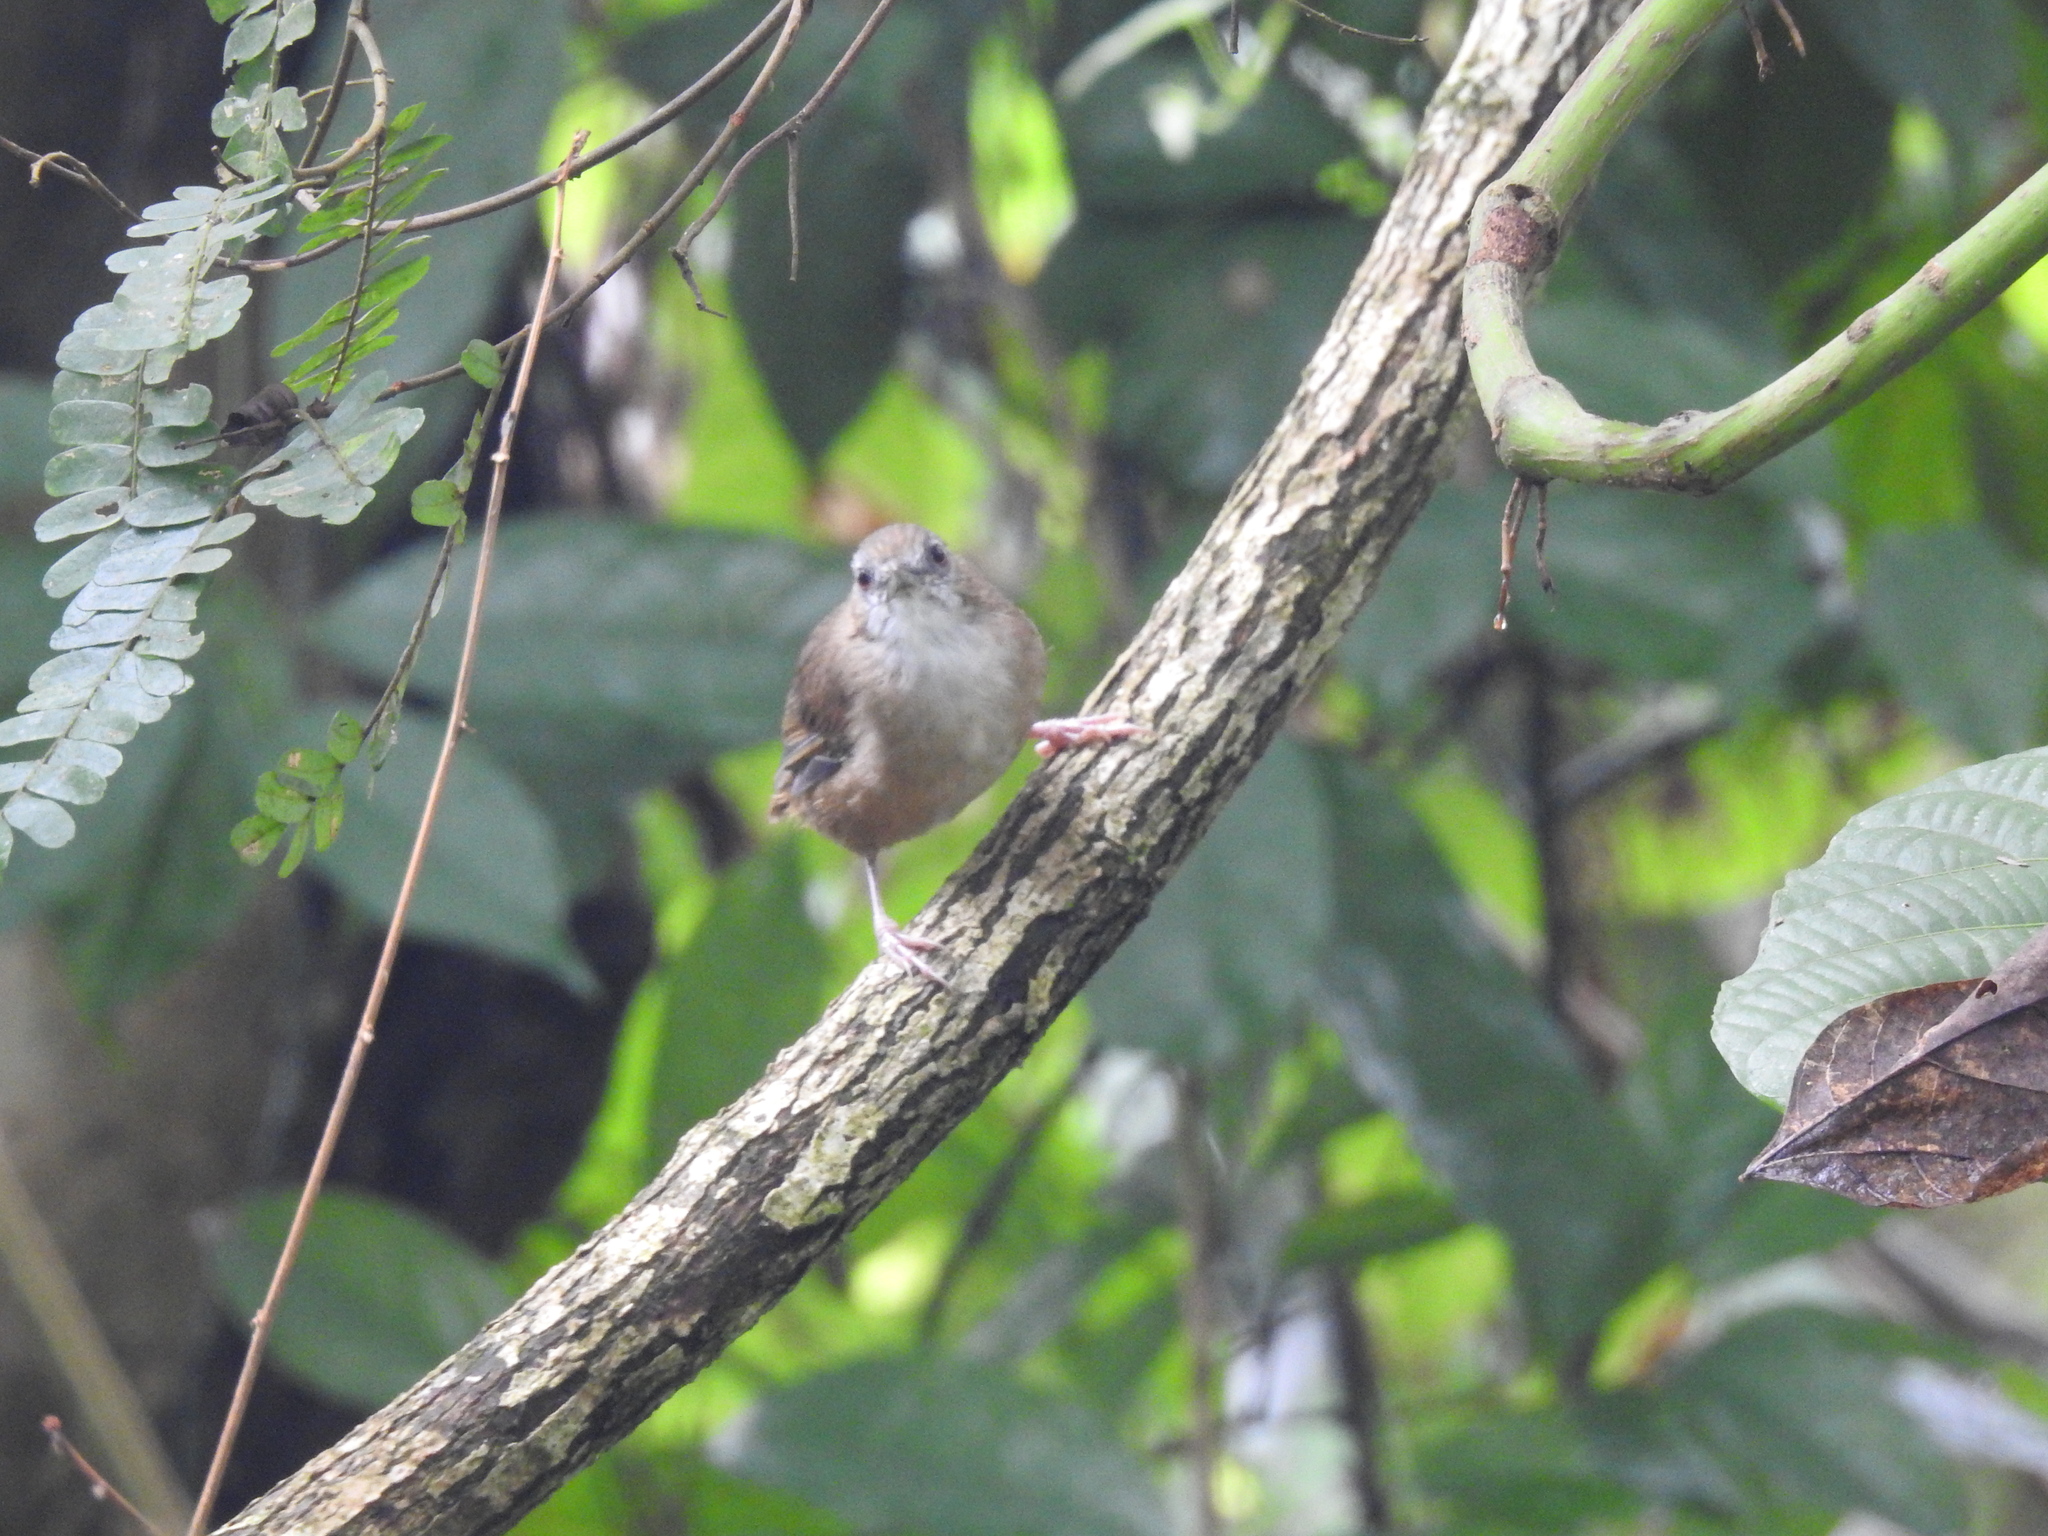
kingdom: Animalia
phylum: Chordata
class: Aves
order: Passeriformes
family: Pellorneidae
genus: Malacocincla
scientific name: Malacocincla abbotti
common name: Abbott's babbler
